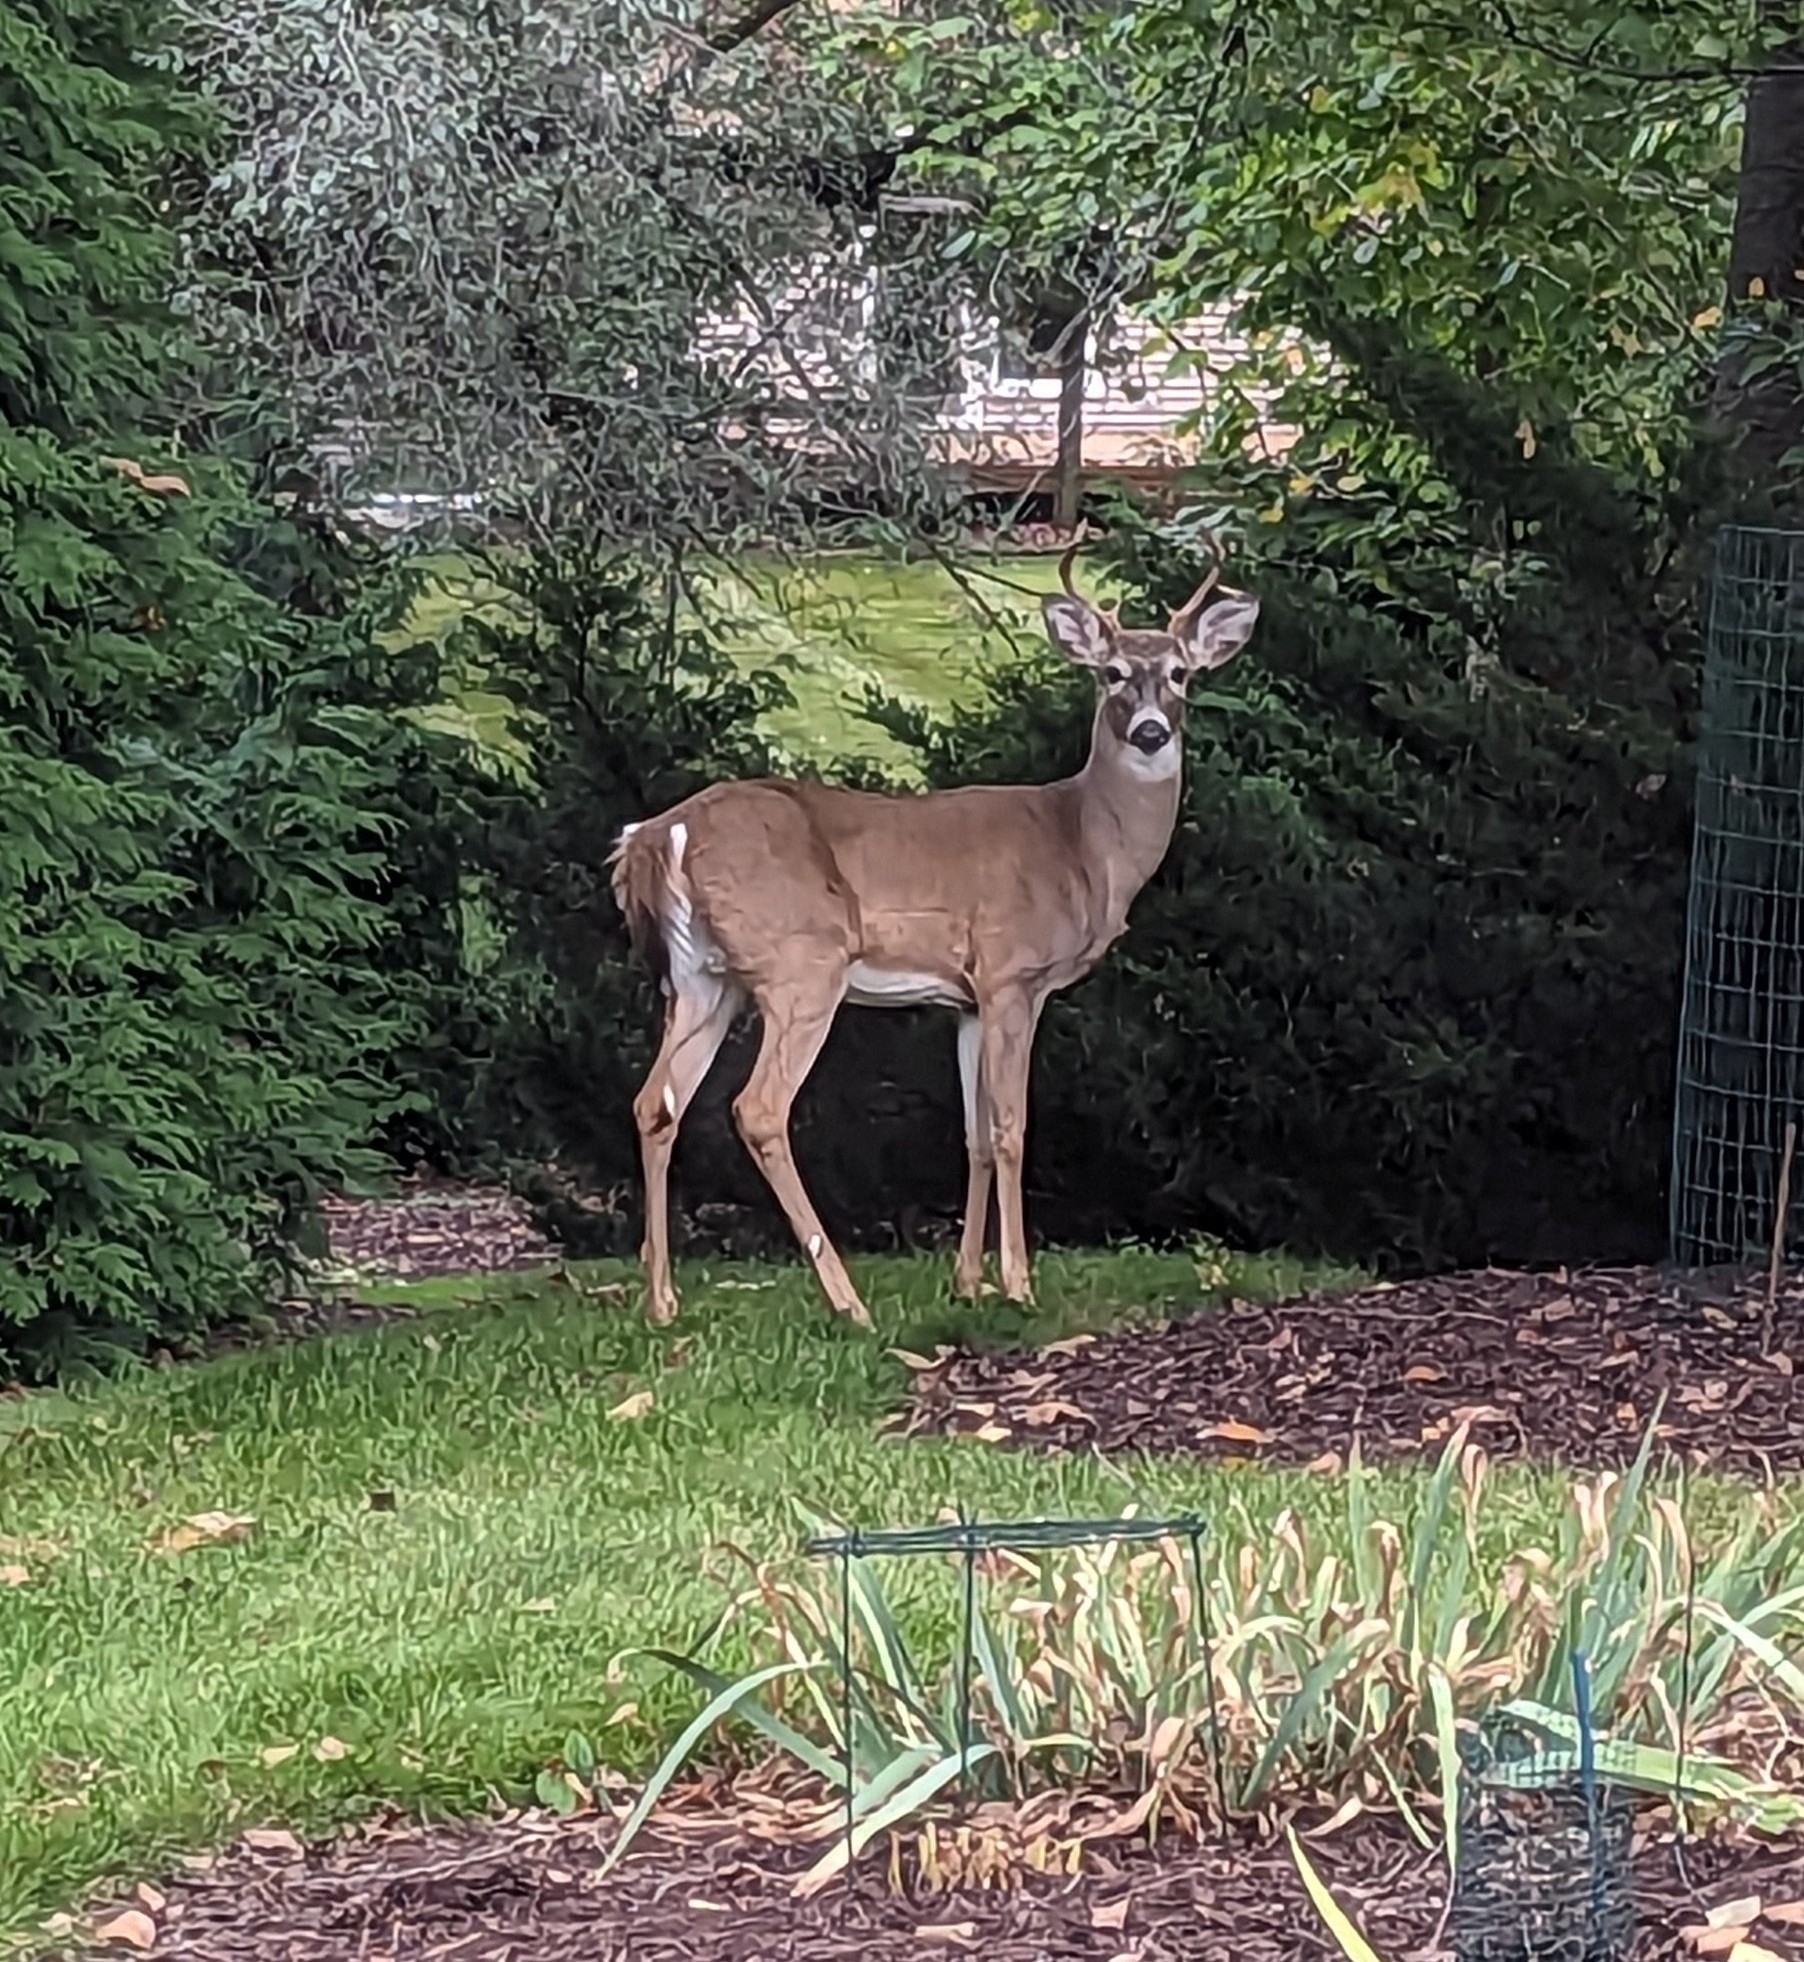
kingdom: Animalia
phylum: Chordata
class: Mammalia
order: Artiodactyla
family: Cervidae
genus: Odocoileus
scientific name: Odocoileus virginianus
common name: White-tailed deer
